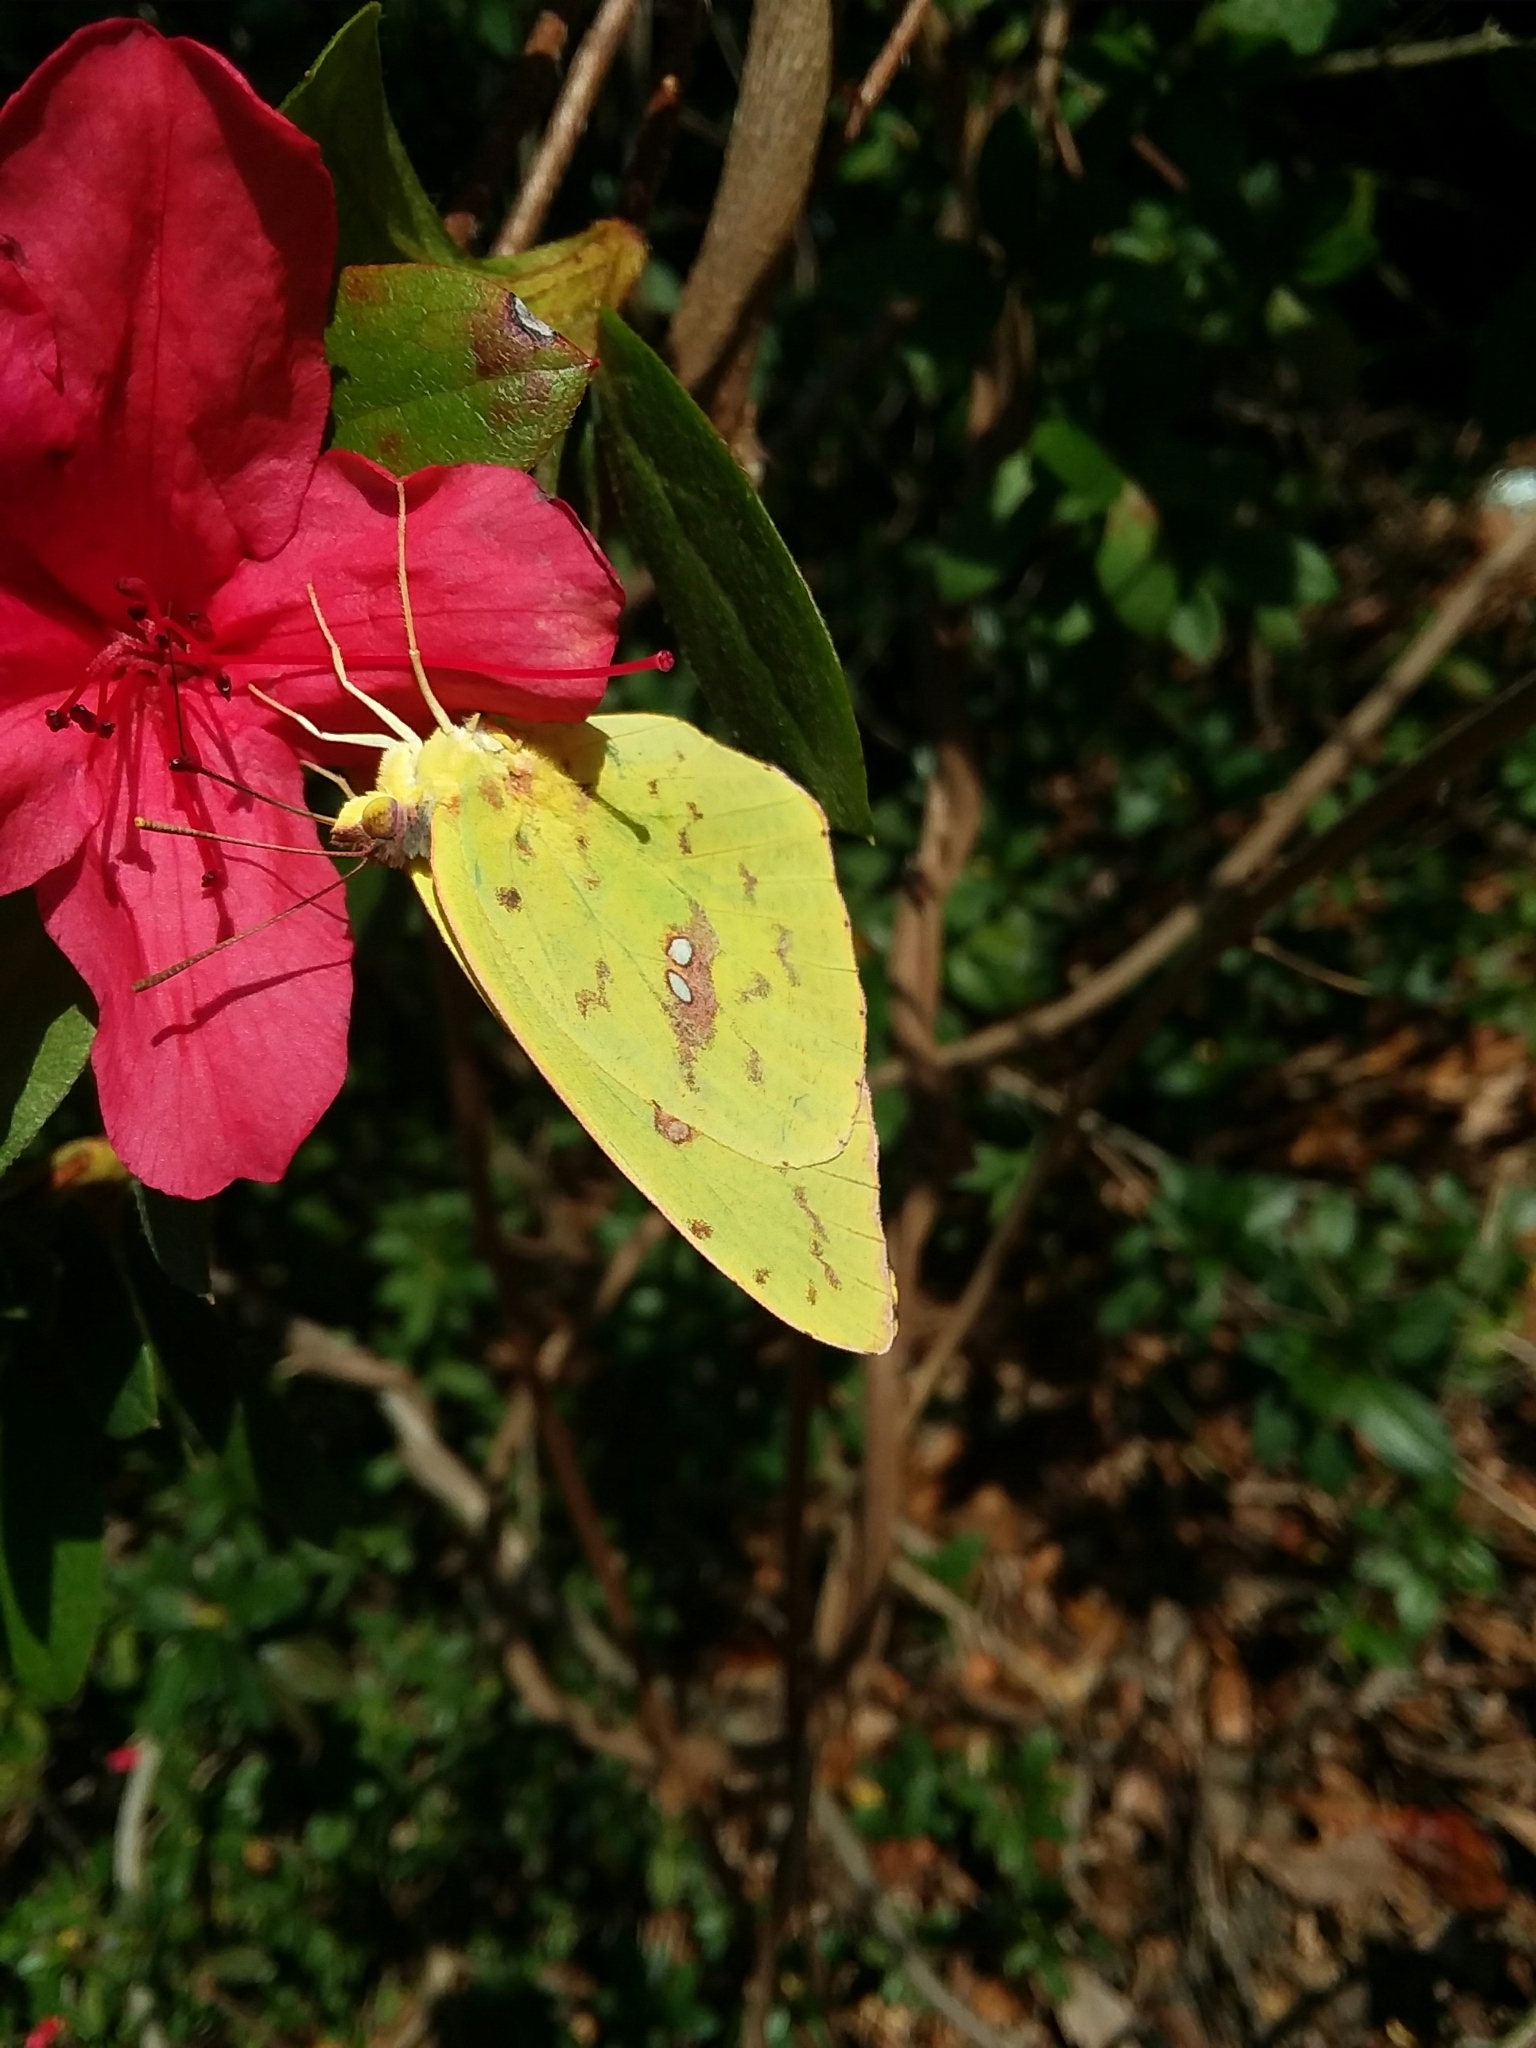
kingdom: Animalia
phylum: Arthropoda
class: Insecta
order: Lepidoptera
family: Pieridae
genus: Phoebis
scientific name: Phoebis sennae
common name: Cloudless sulphur
